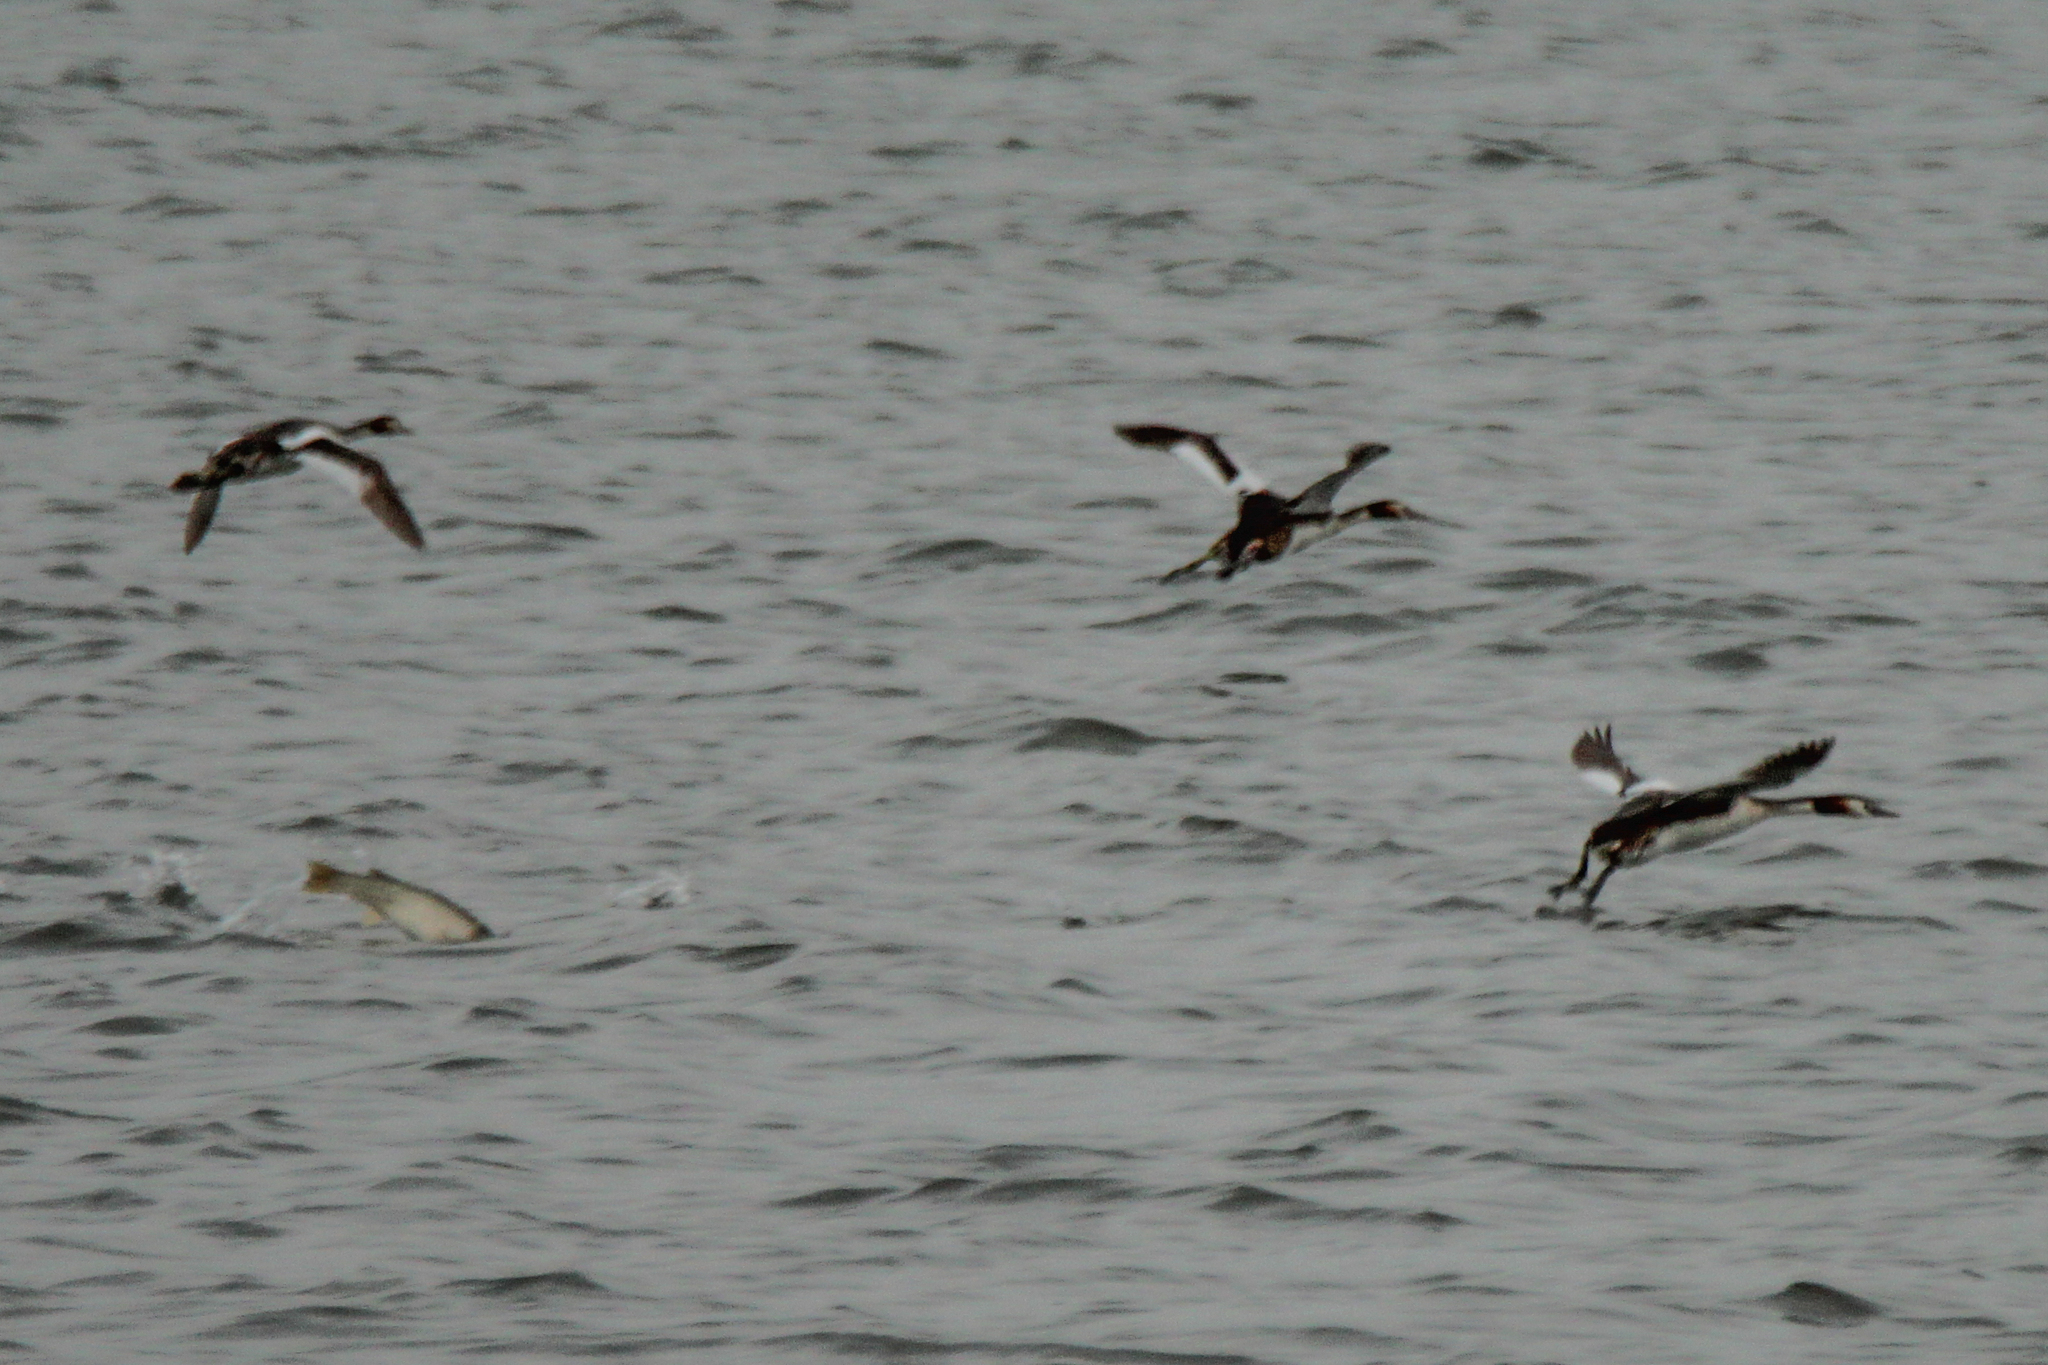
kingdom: Animalia
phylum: Chordata
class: Aves
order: Podicipediformes
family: Podicipedidae
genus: Podiceps
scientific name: Podiceps cristatus
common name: Great crested grebe
